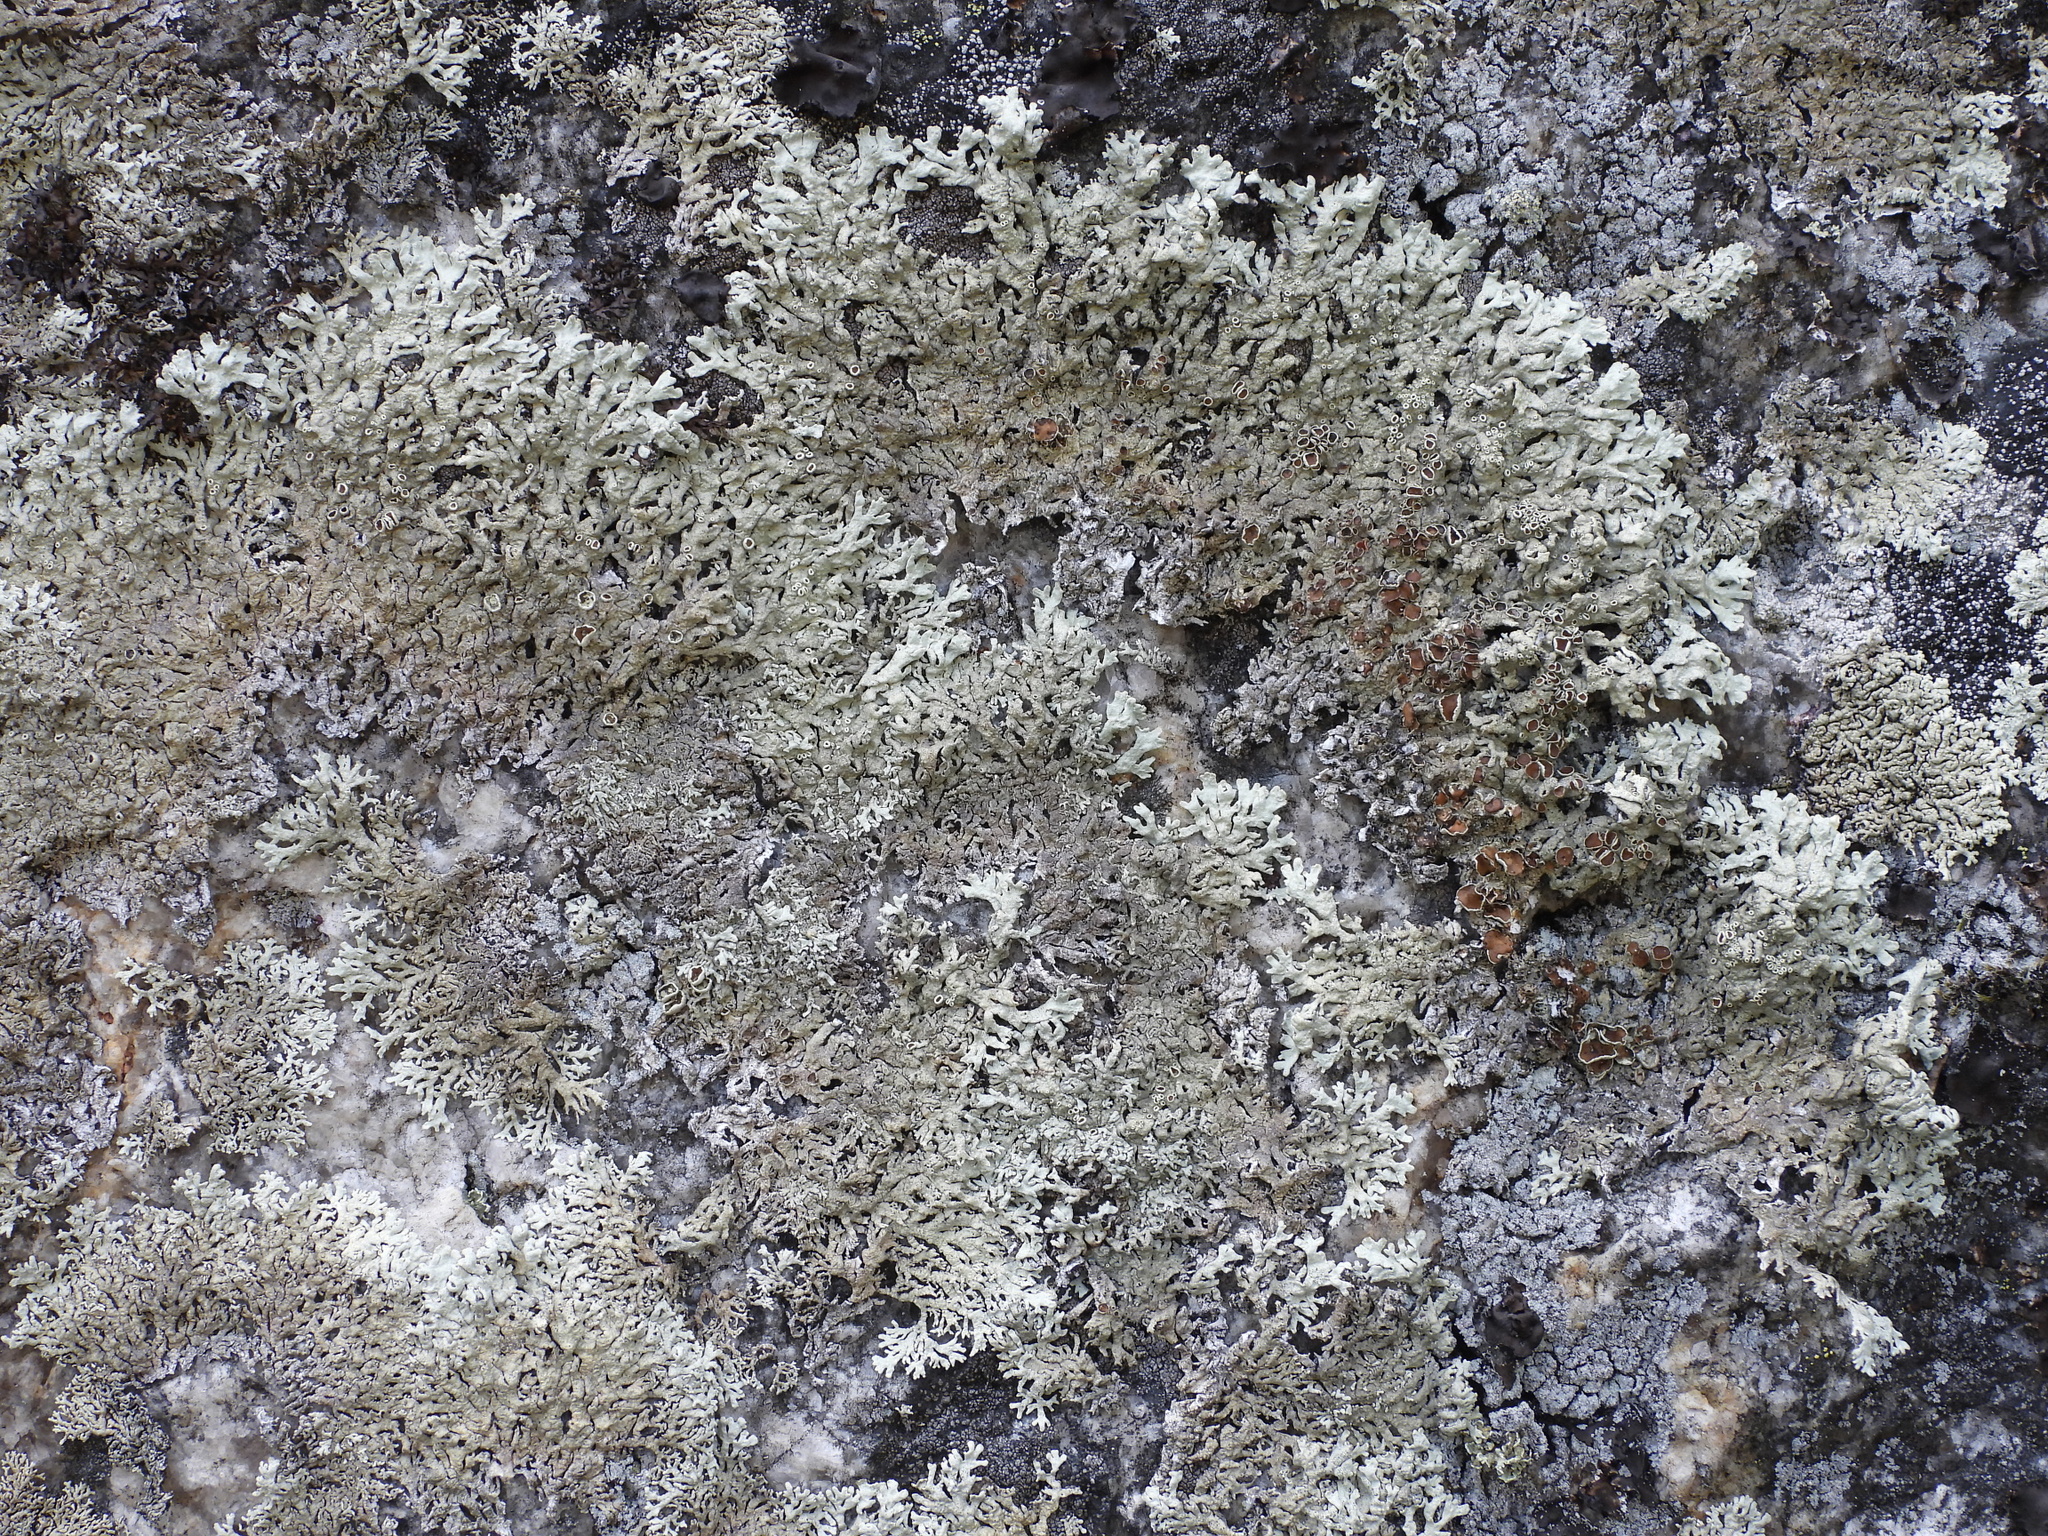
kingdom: Fungi
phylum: Ascomycota
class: Lecanoromycetes
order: Lecanorales
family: Parmeliaceae
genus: Arctoparmelia
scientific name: Arctoparmelia centrifuga
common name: Concentric ring lichen
